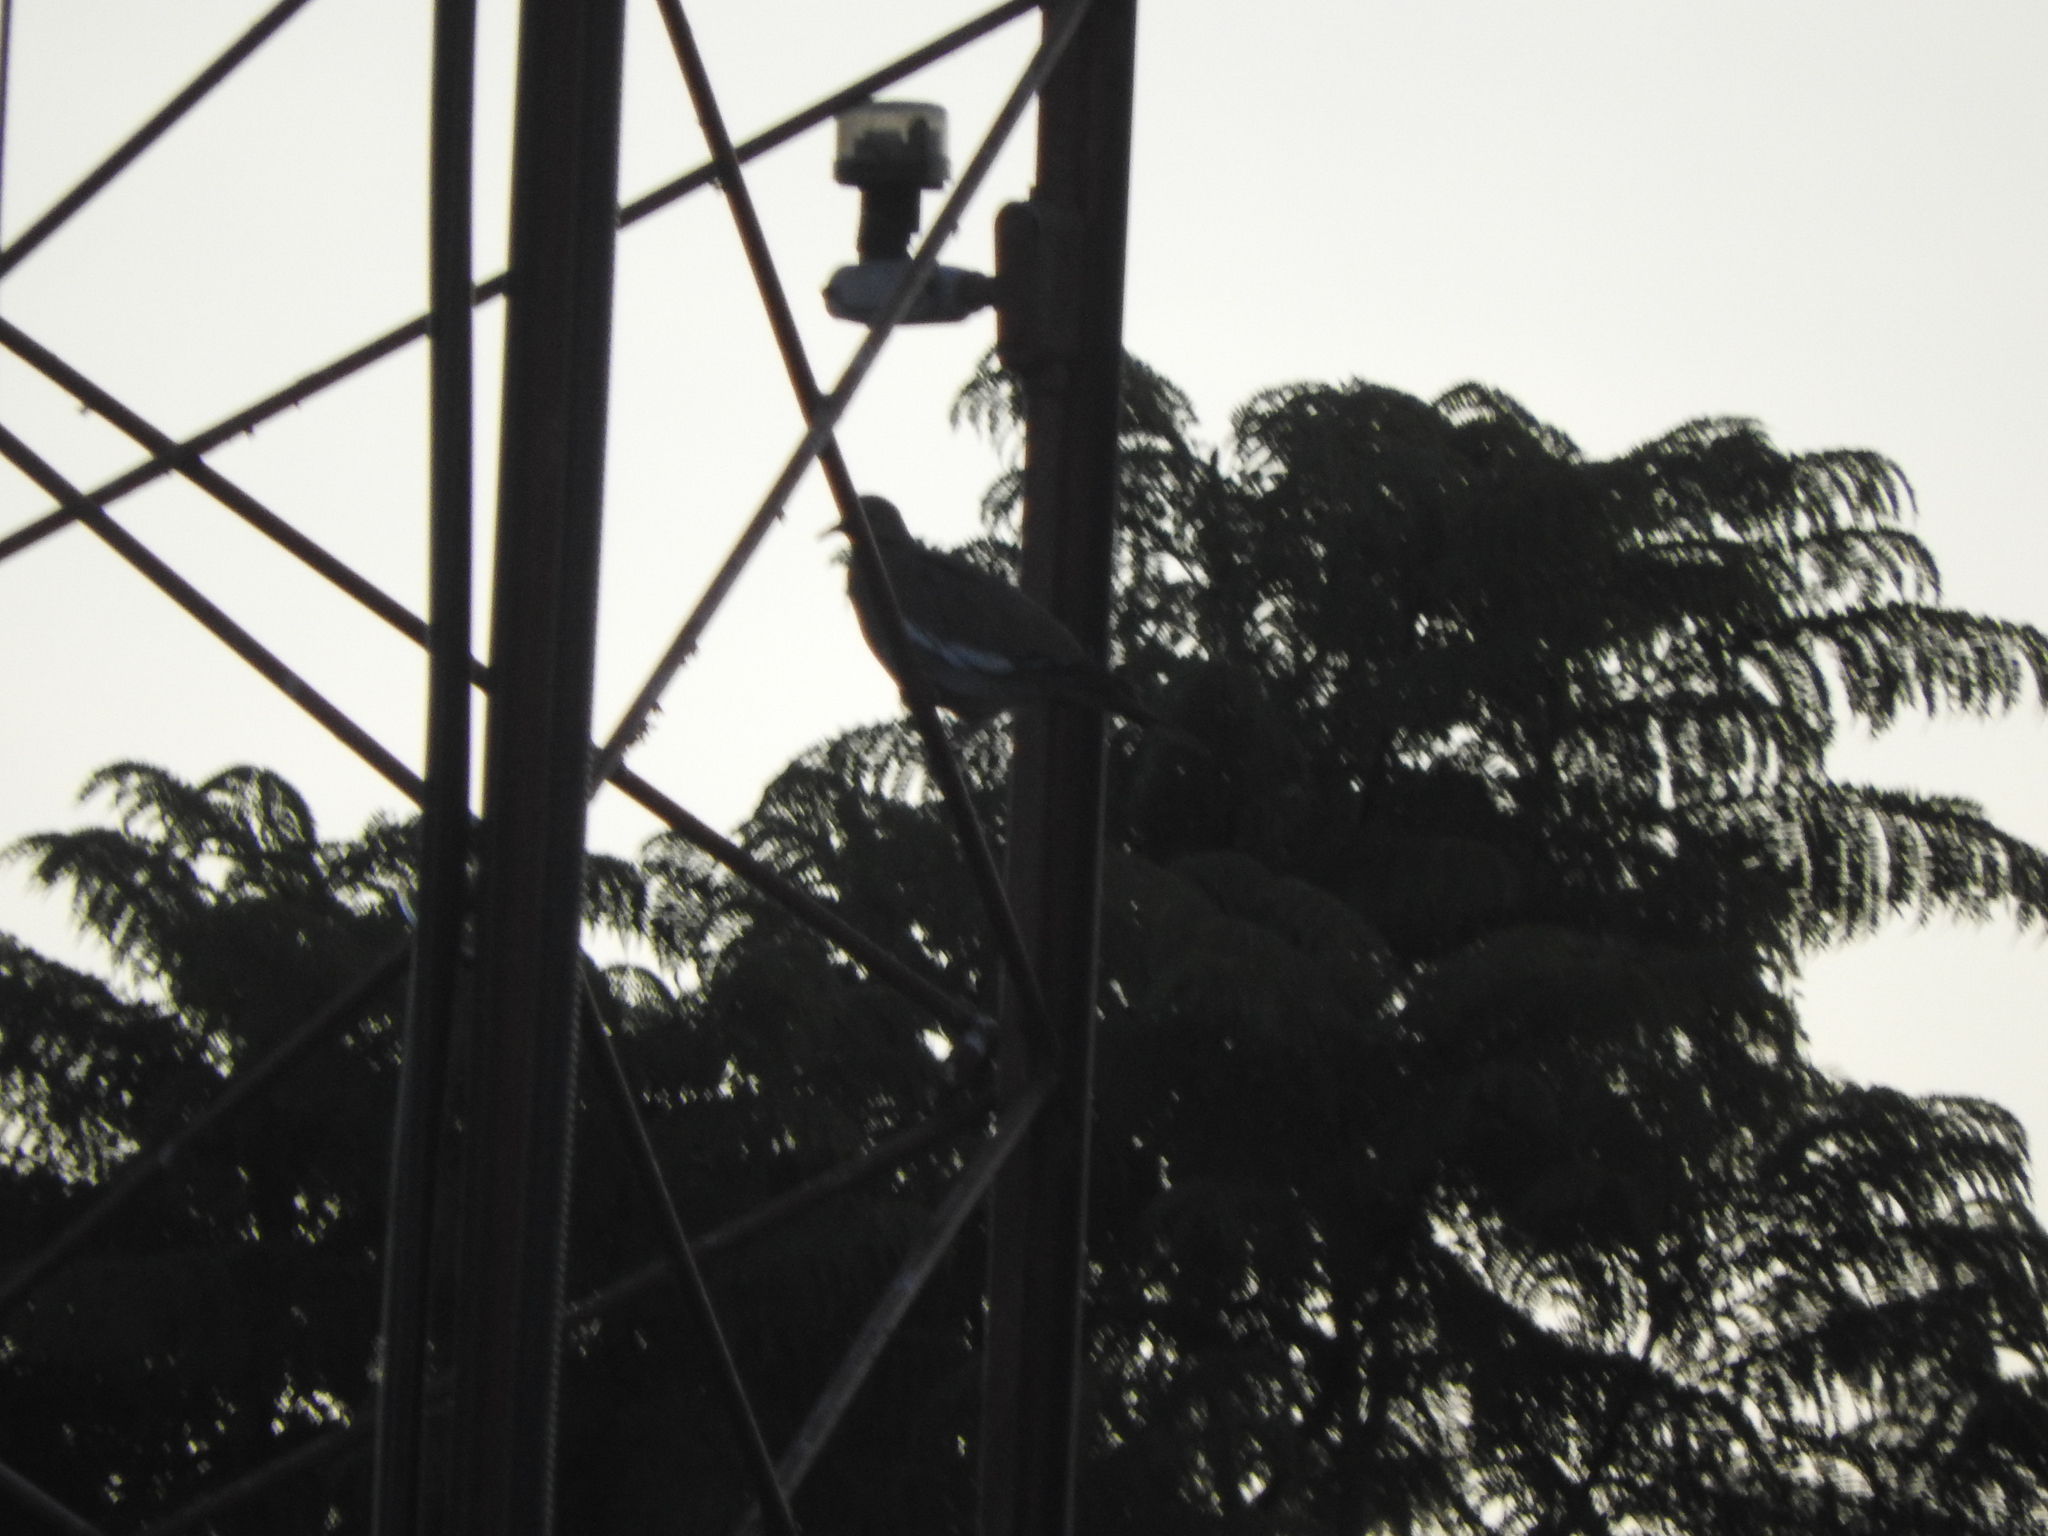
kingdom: Animalia
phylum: Chordata
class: Aves
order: Columbiformes
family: Columbidae
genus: Zenaida
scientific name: Zenaida asiatica
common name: White-winged dove
